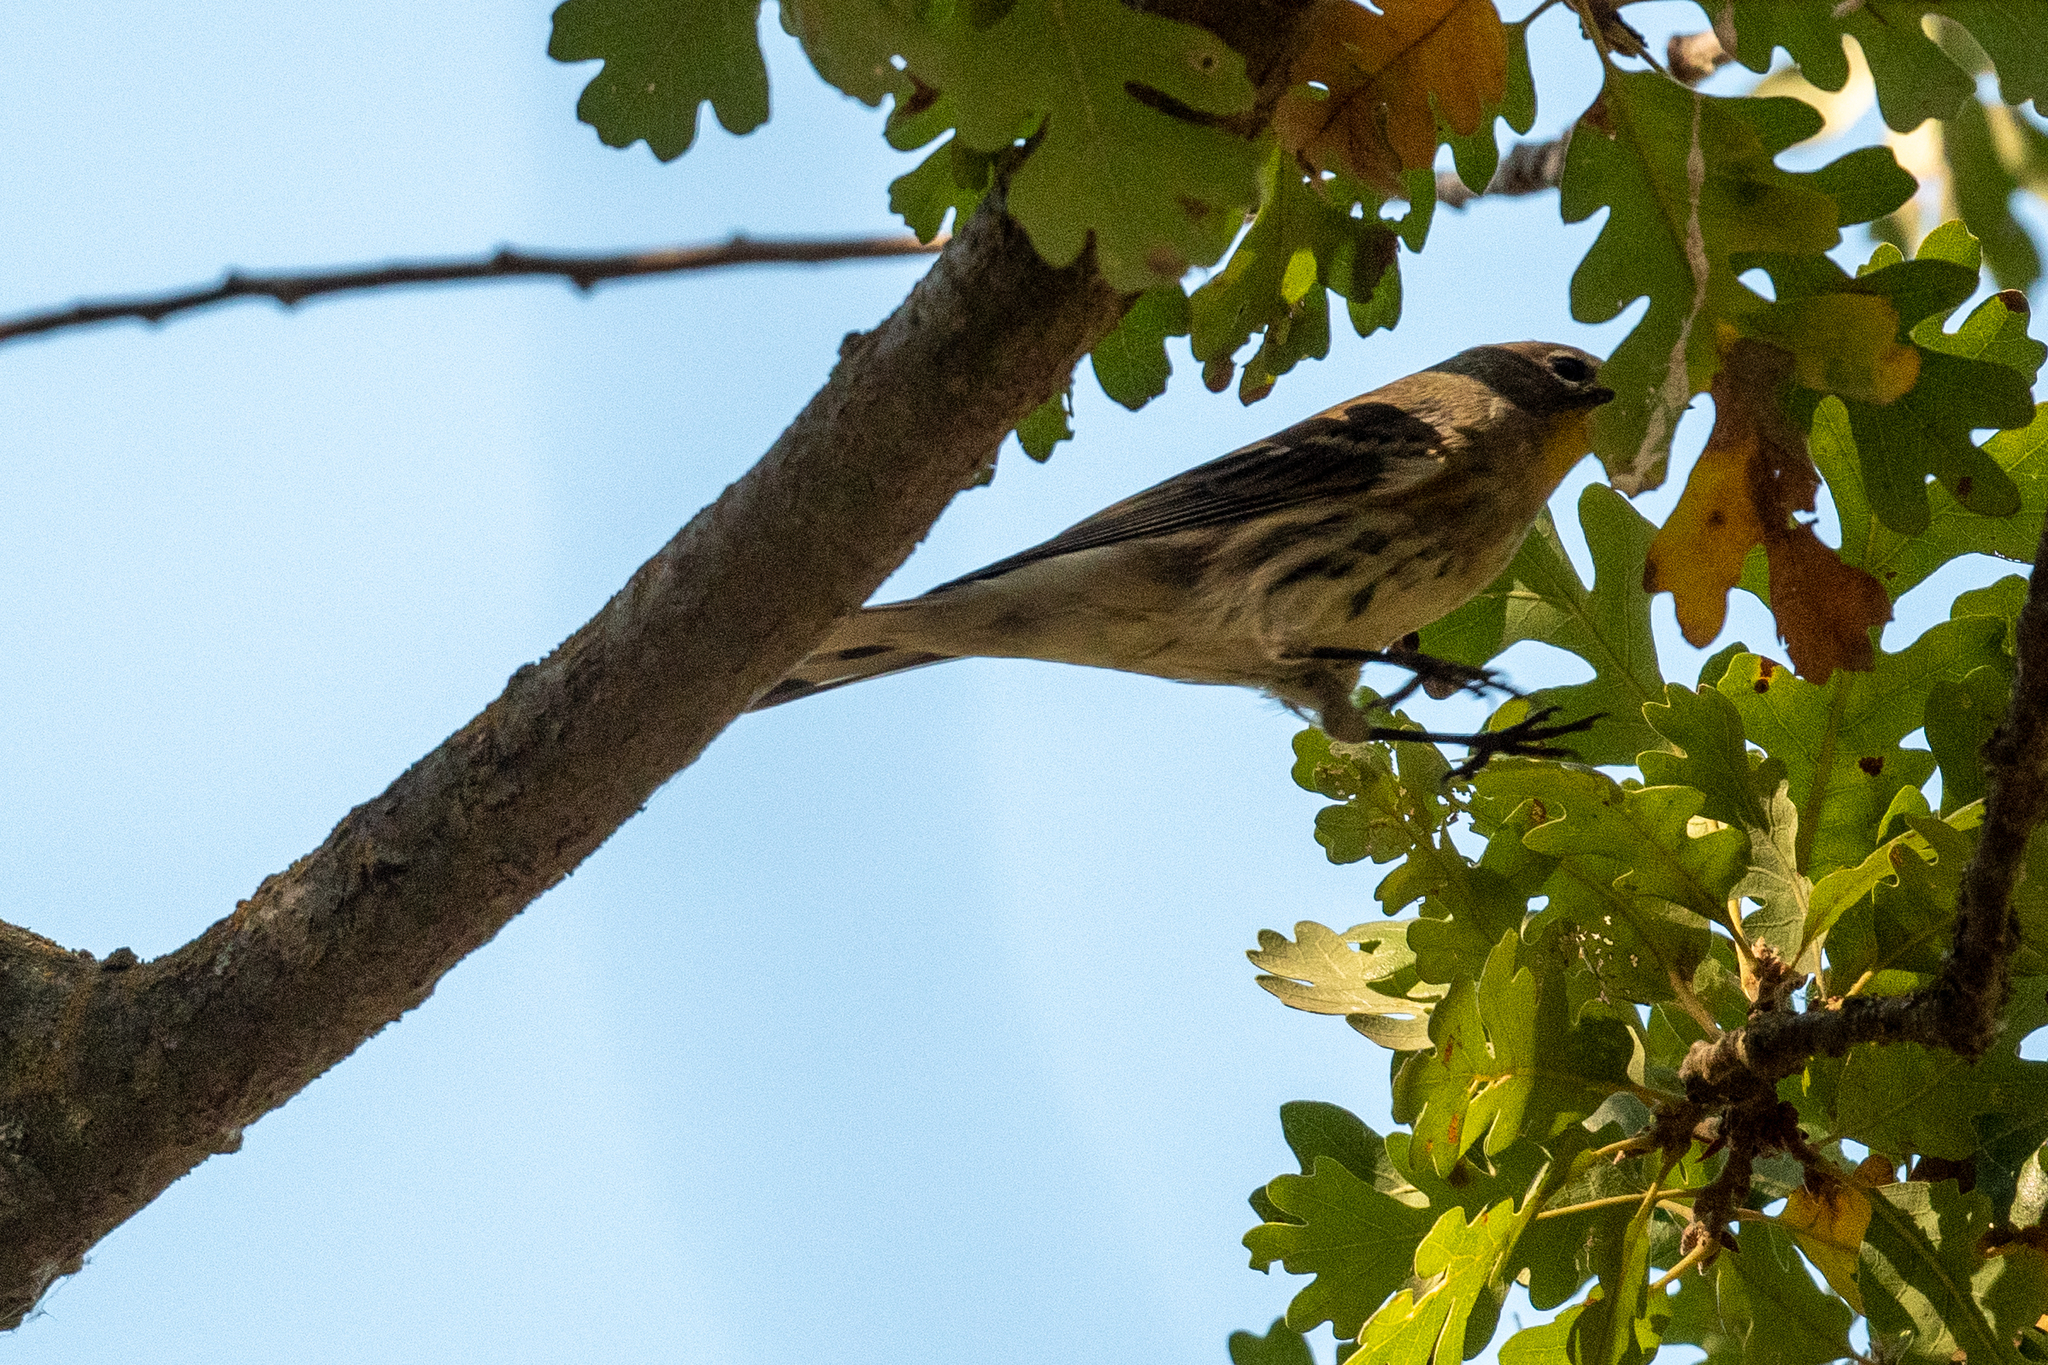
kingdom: Animalia
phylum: Chordata
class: Aves
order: Passeriformes
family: Parulidae
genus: Setophaga
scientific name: Setophaga coronata
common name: Myrtle warbler
